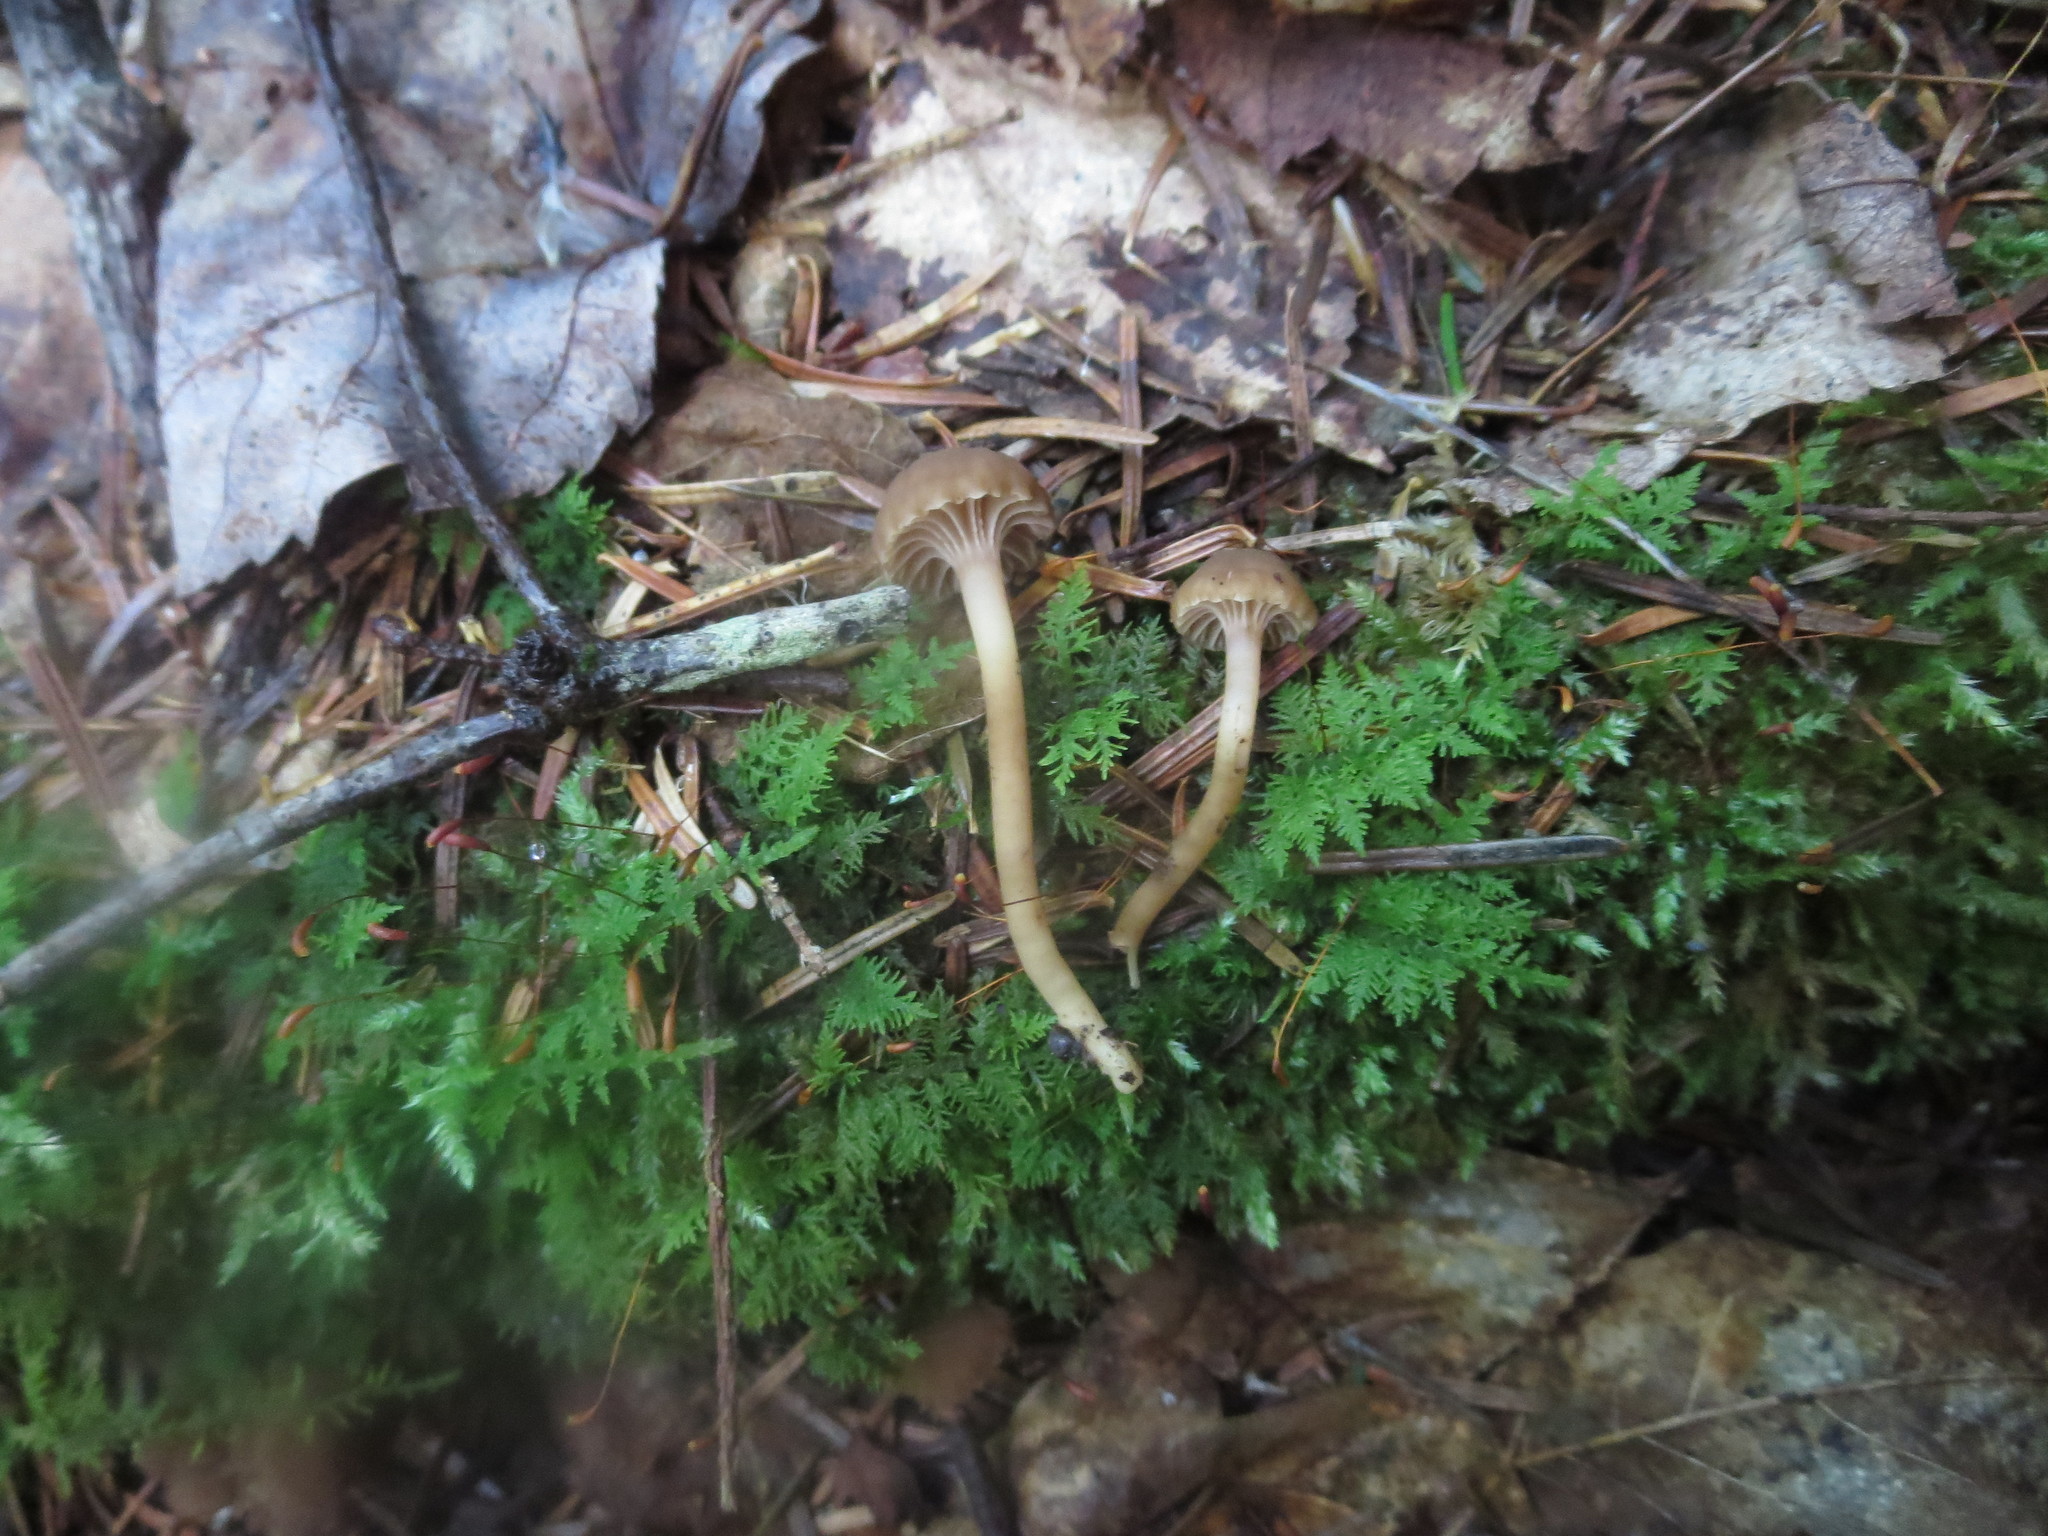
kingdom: Fungi
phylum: Basidiomycota
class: Agaricomycetes
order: Agaricales
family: Clavariaceae
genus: Hodophilus
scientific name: Hodophilus hymenocephalus
